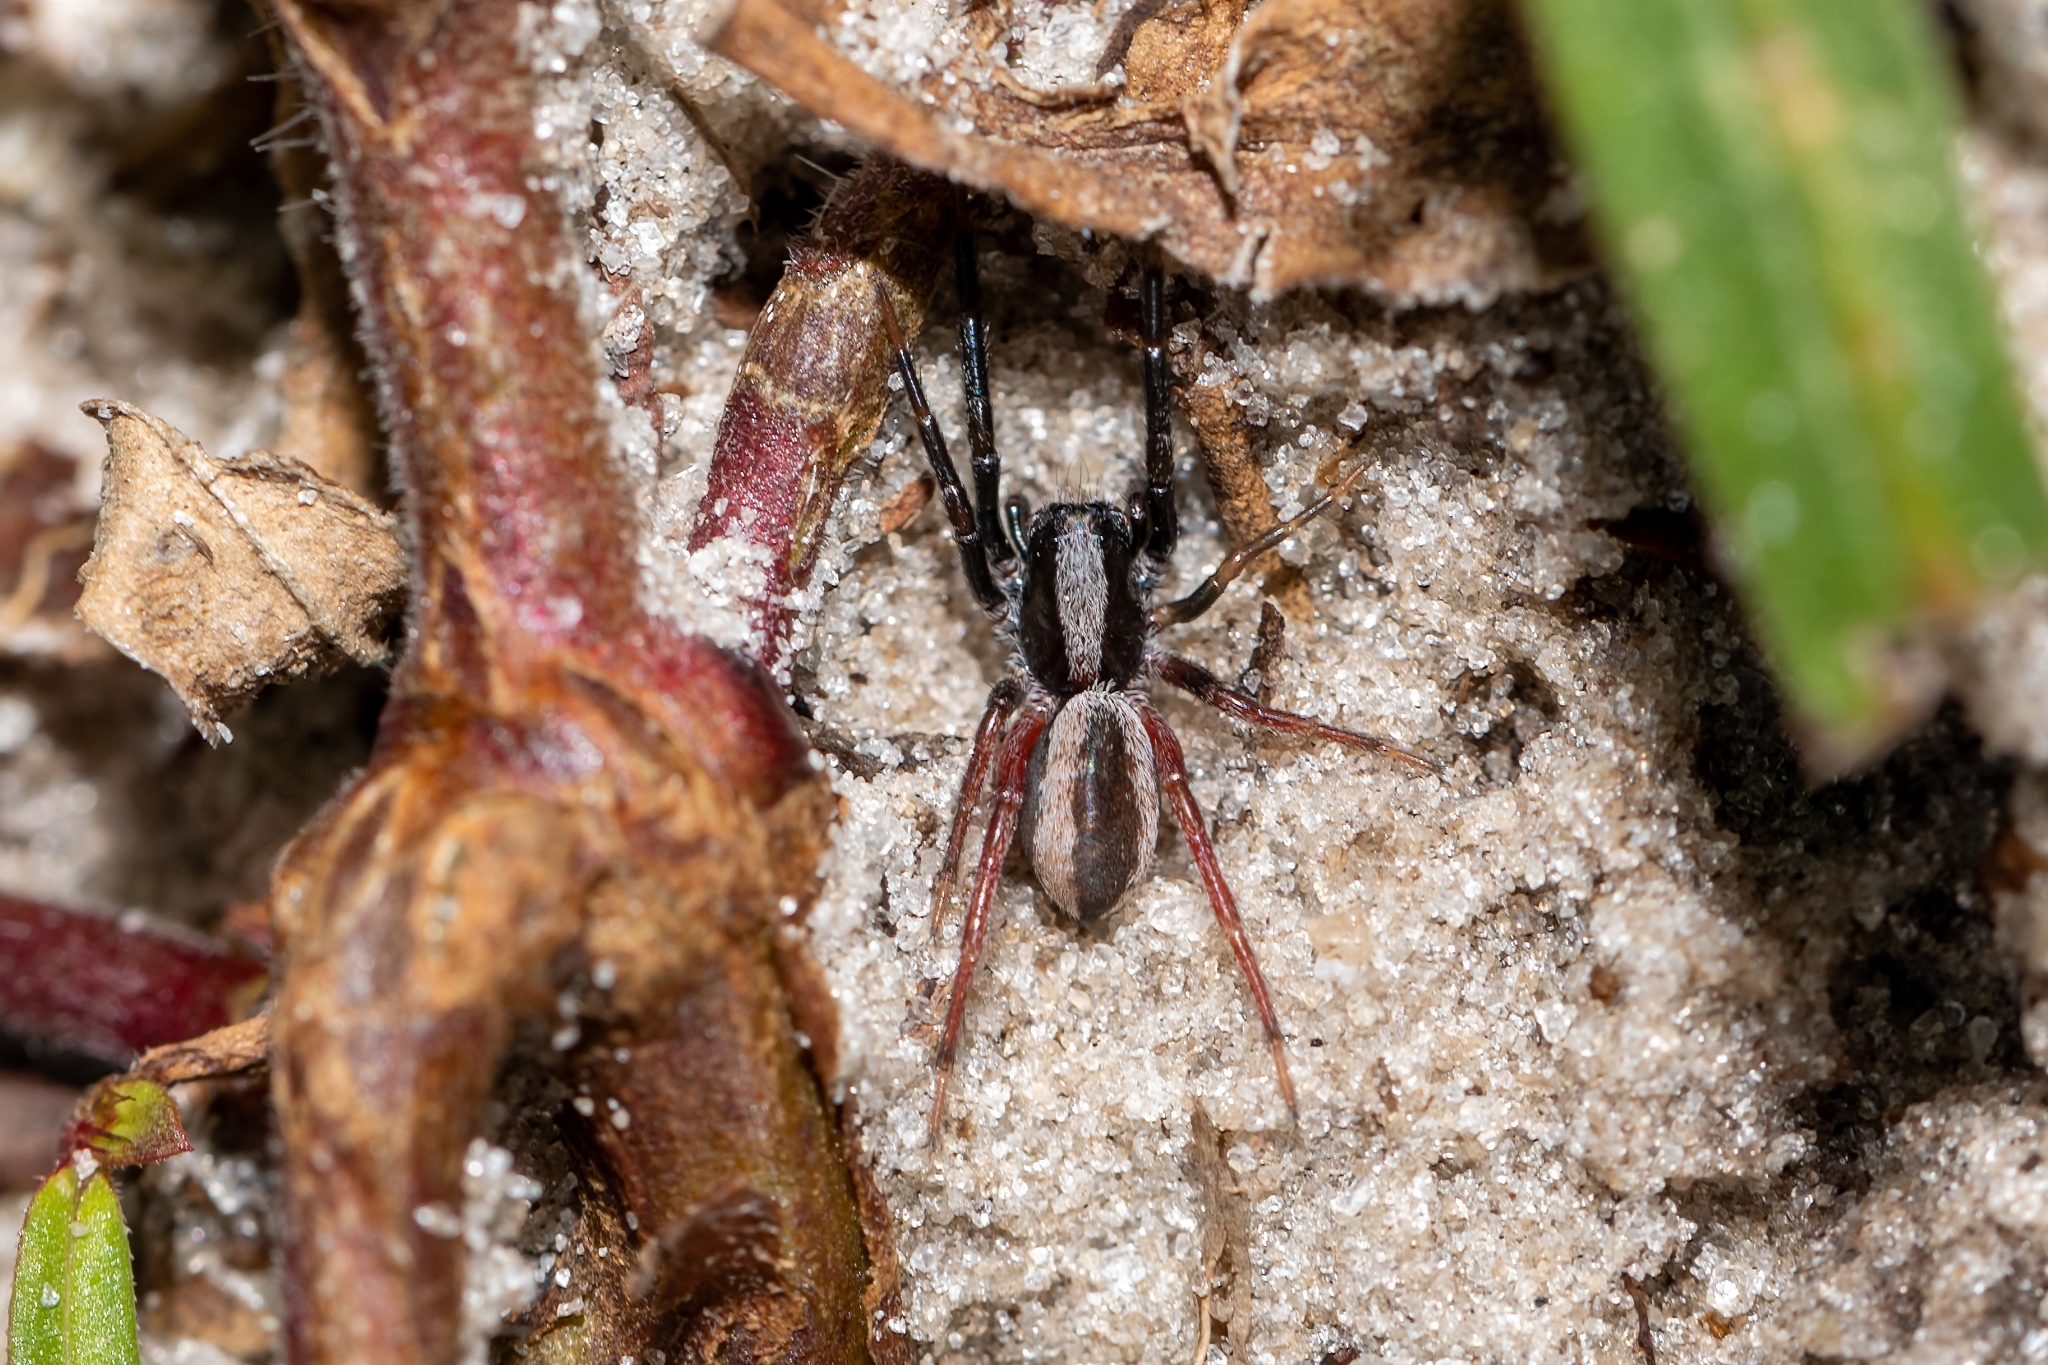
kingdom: Animalia
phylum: Arthropoda
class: Arachnida
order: Araneae
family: Lycosidae
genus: Geolycosa
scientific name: Geolycosa hubbelli
